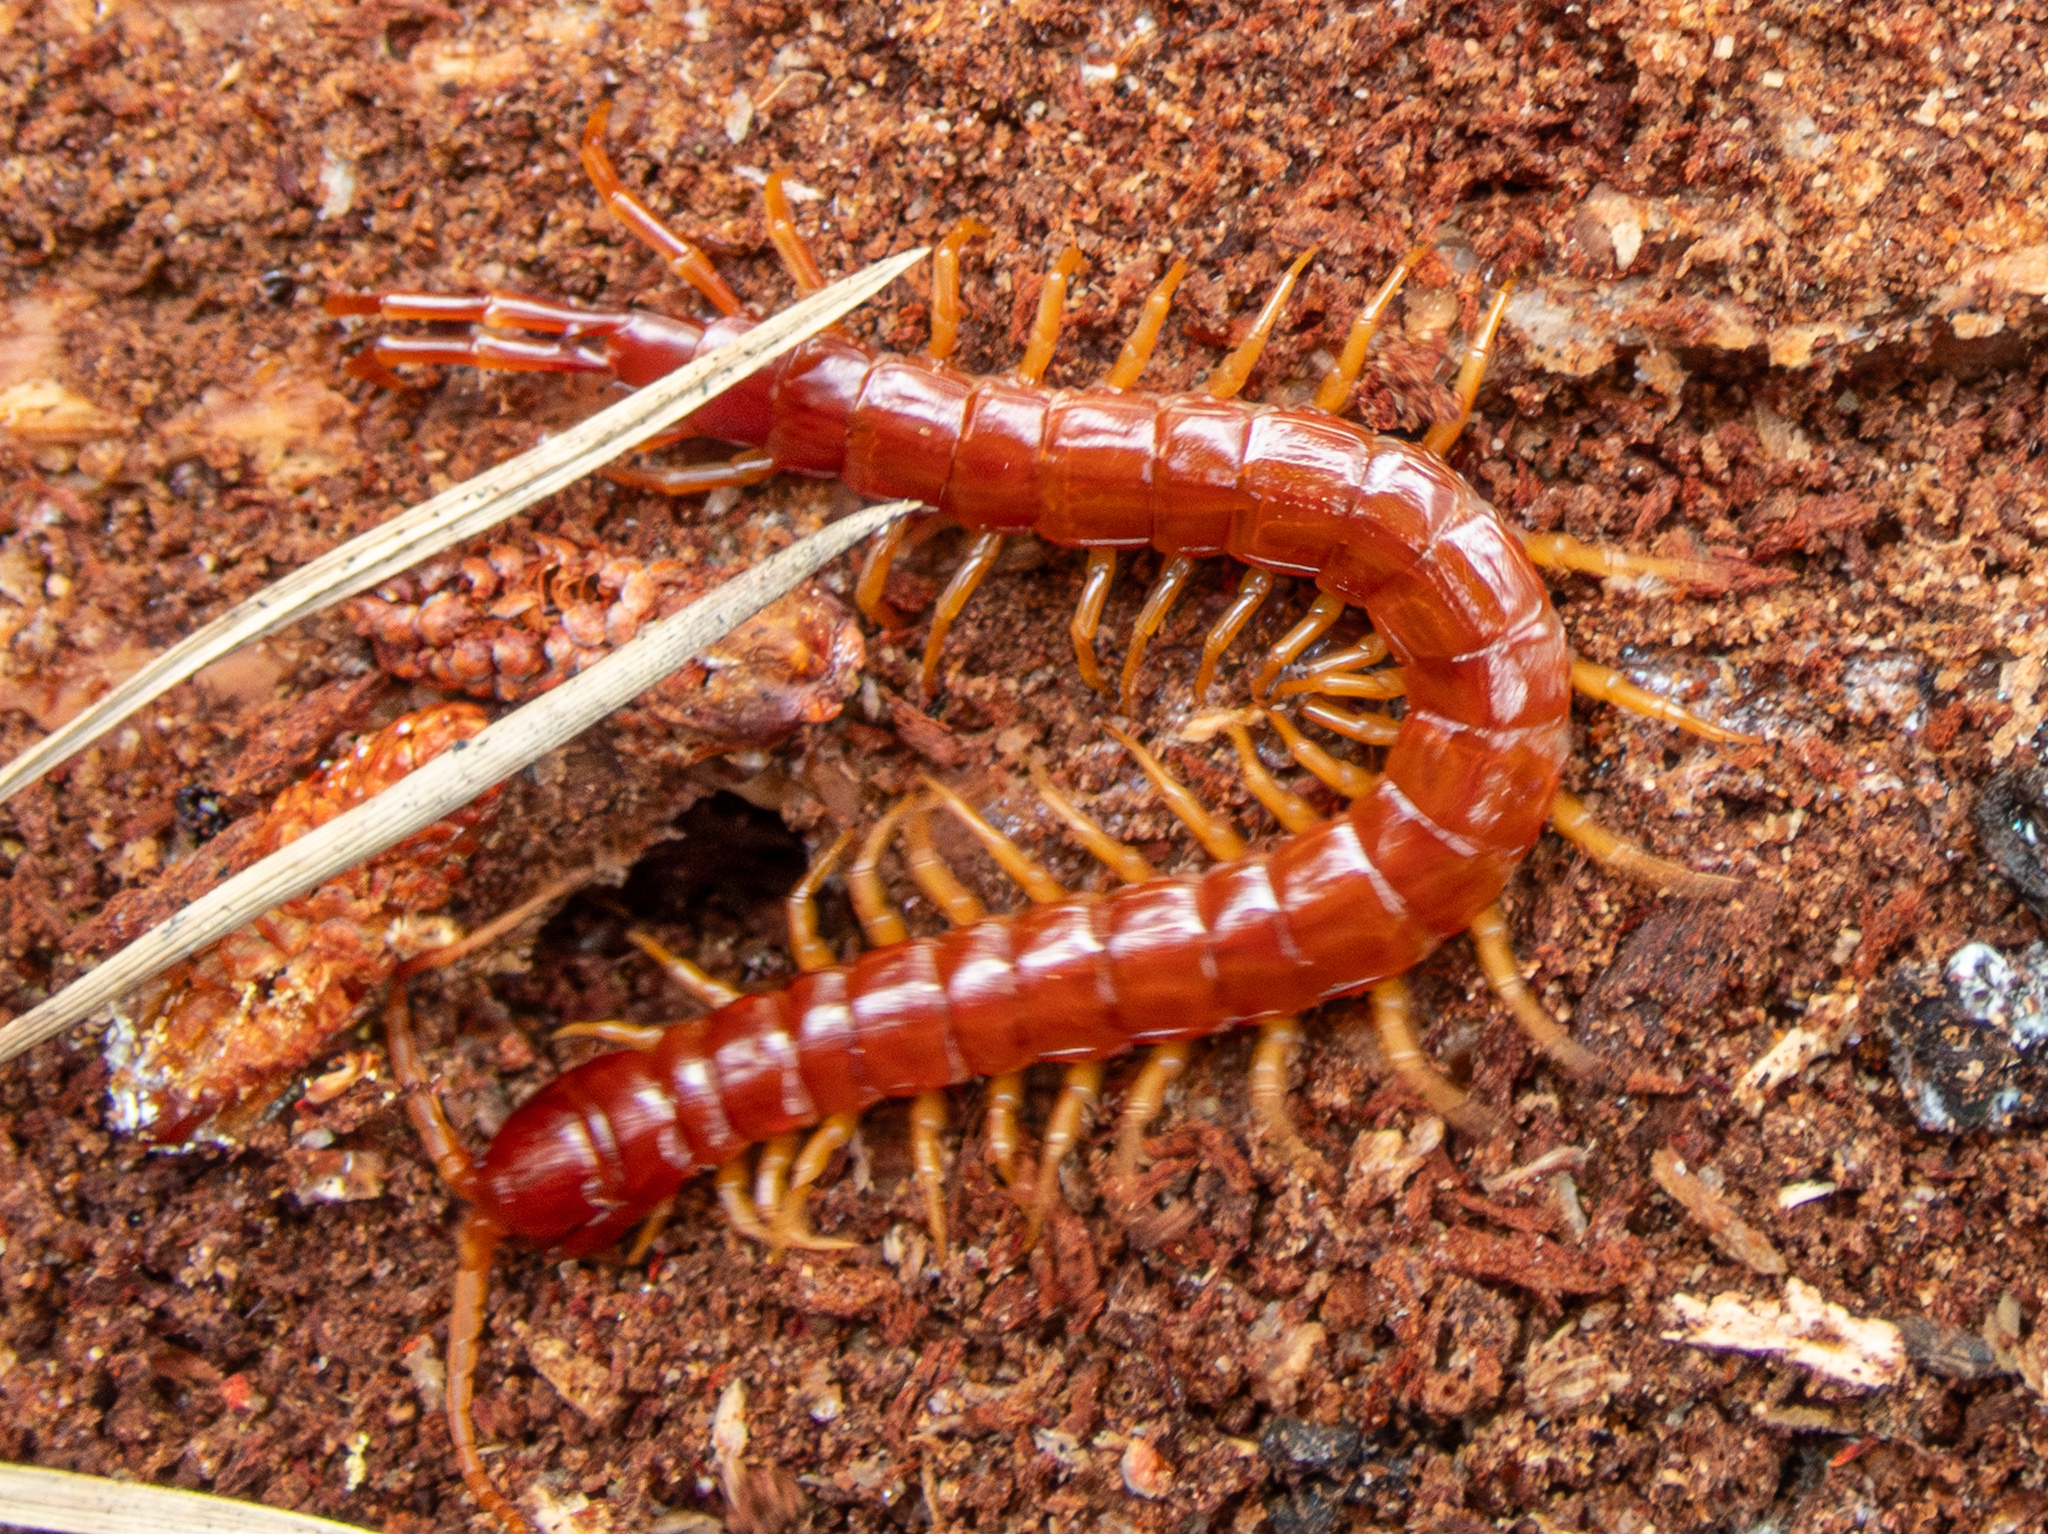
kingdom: Animalia
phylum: Arthropoda
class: Chilopoda
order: Scolopendromorpha
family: Scolopocryptopidae
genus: Scolopocryptops
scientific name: Scolopocryptops spinicaudus
